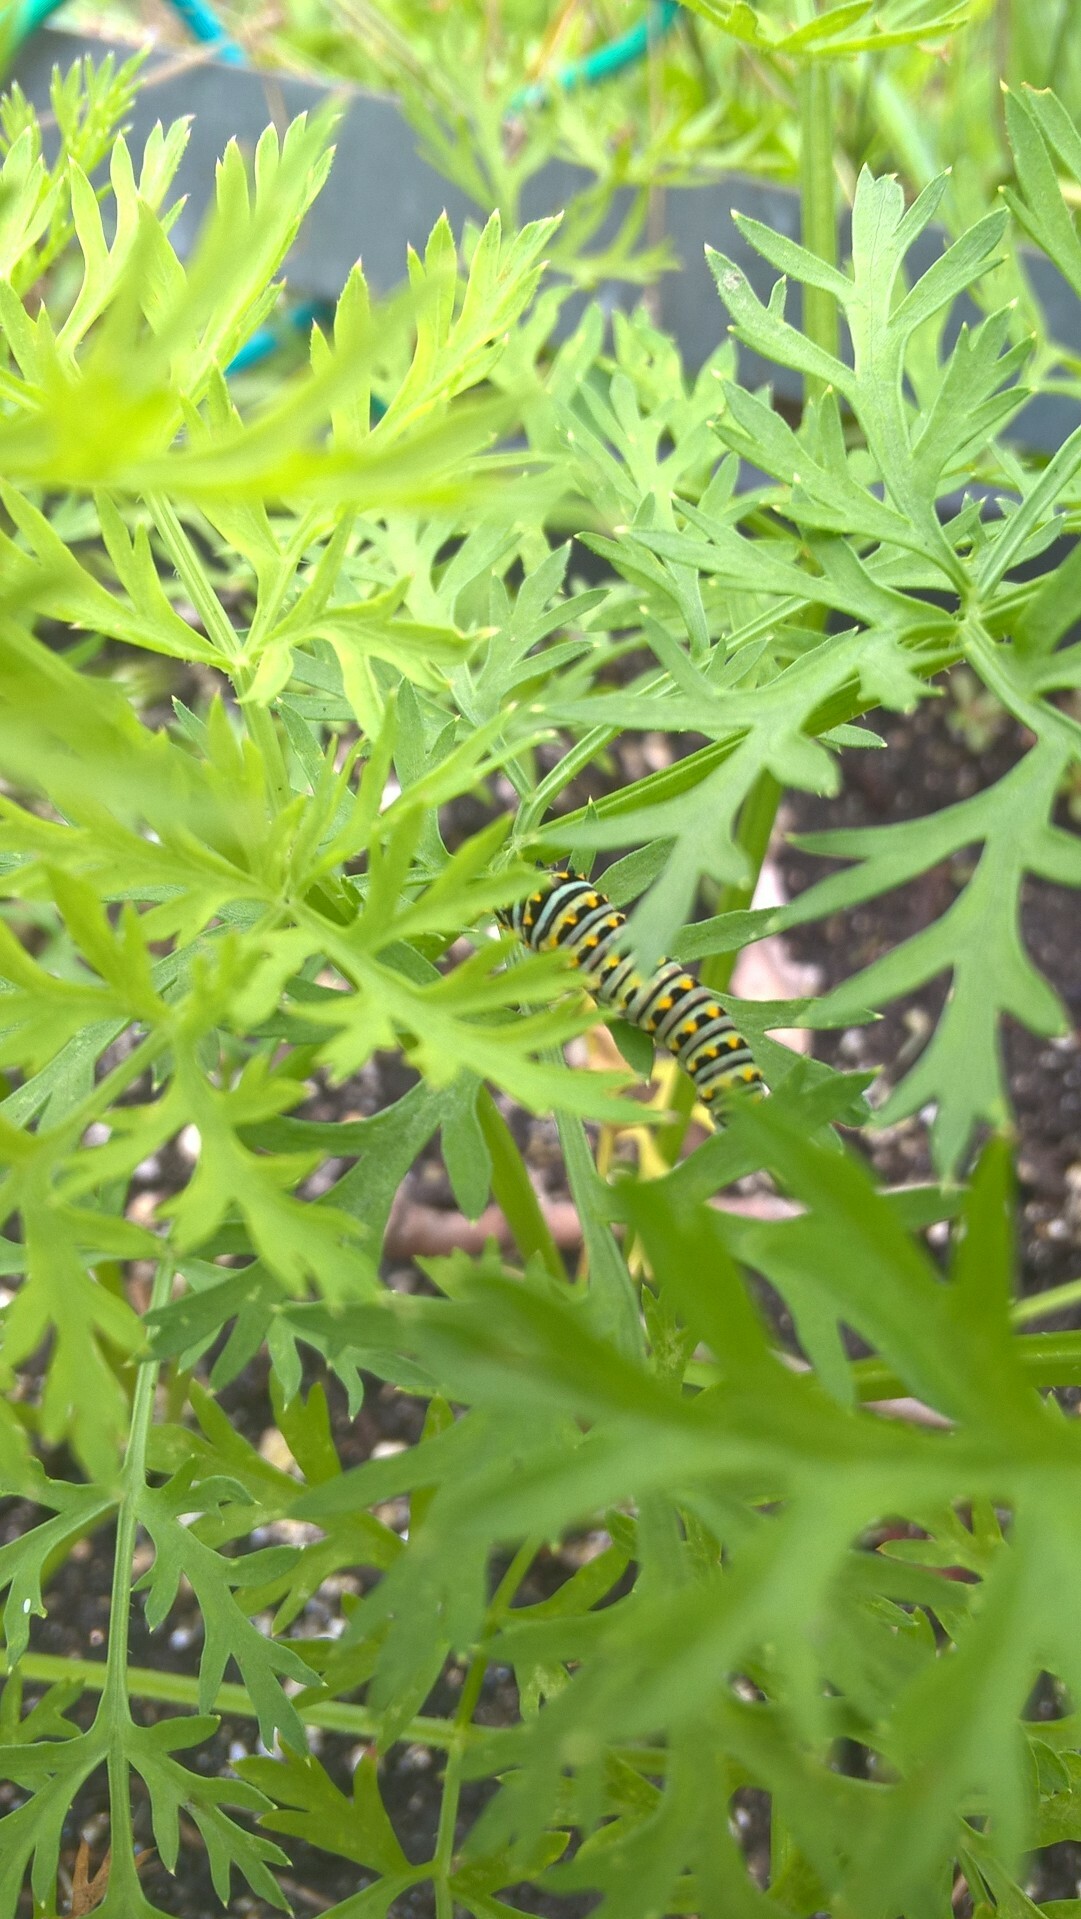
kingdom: Animalia
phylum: Arthropoda
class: Insecta
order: Lepidoptera
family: Papilionidae
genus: Papilio
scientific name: Papilio polyxenes
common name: Black swallowtail
